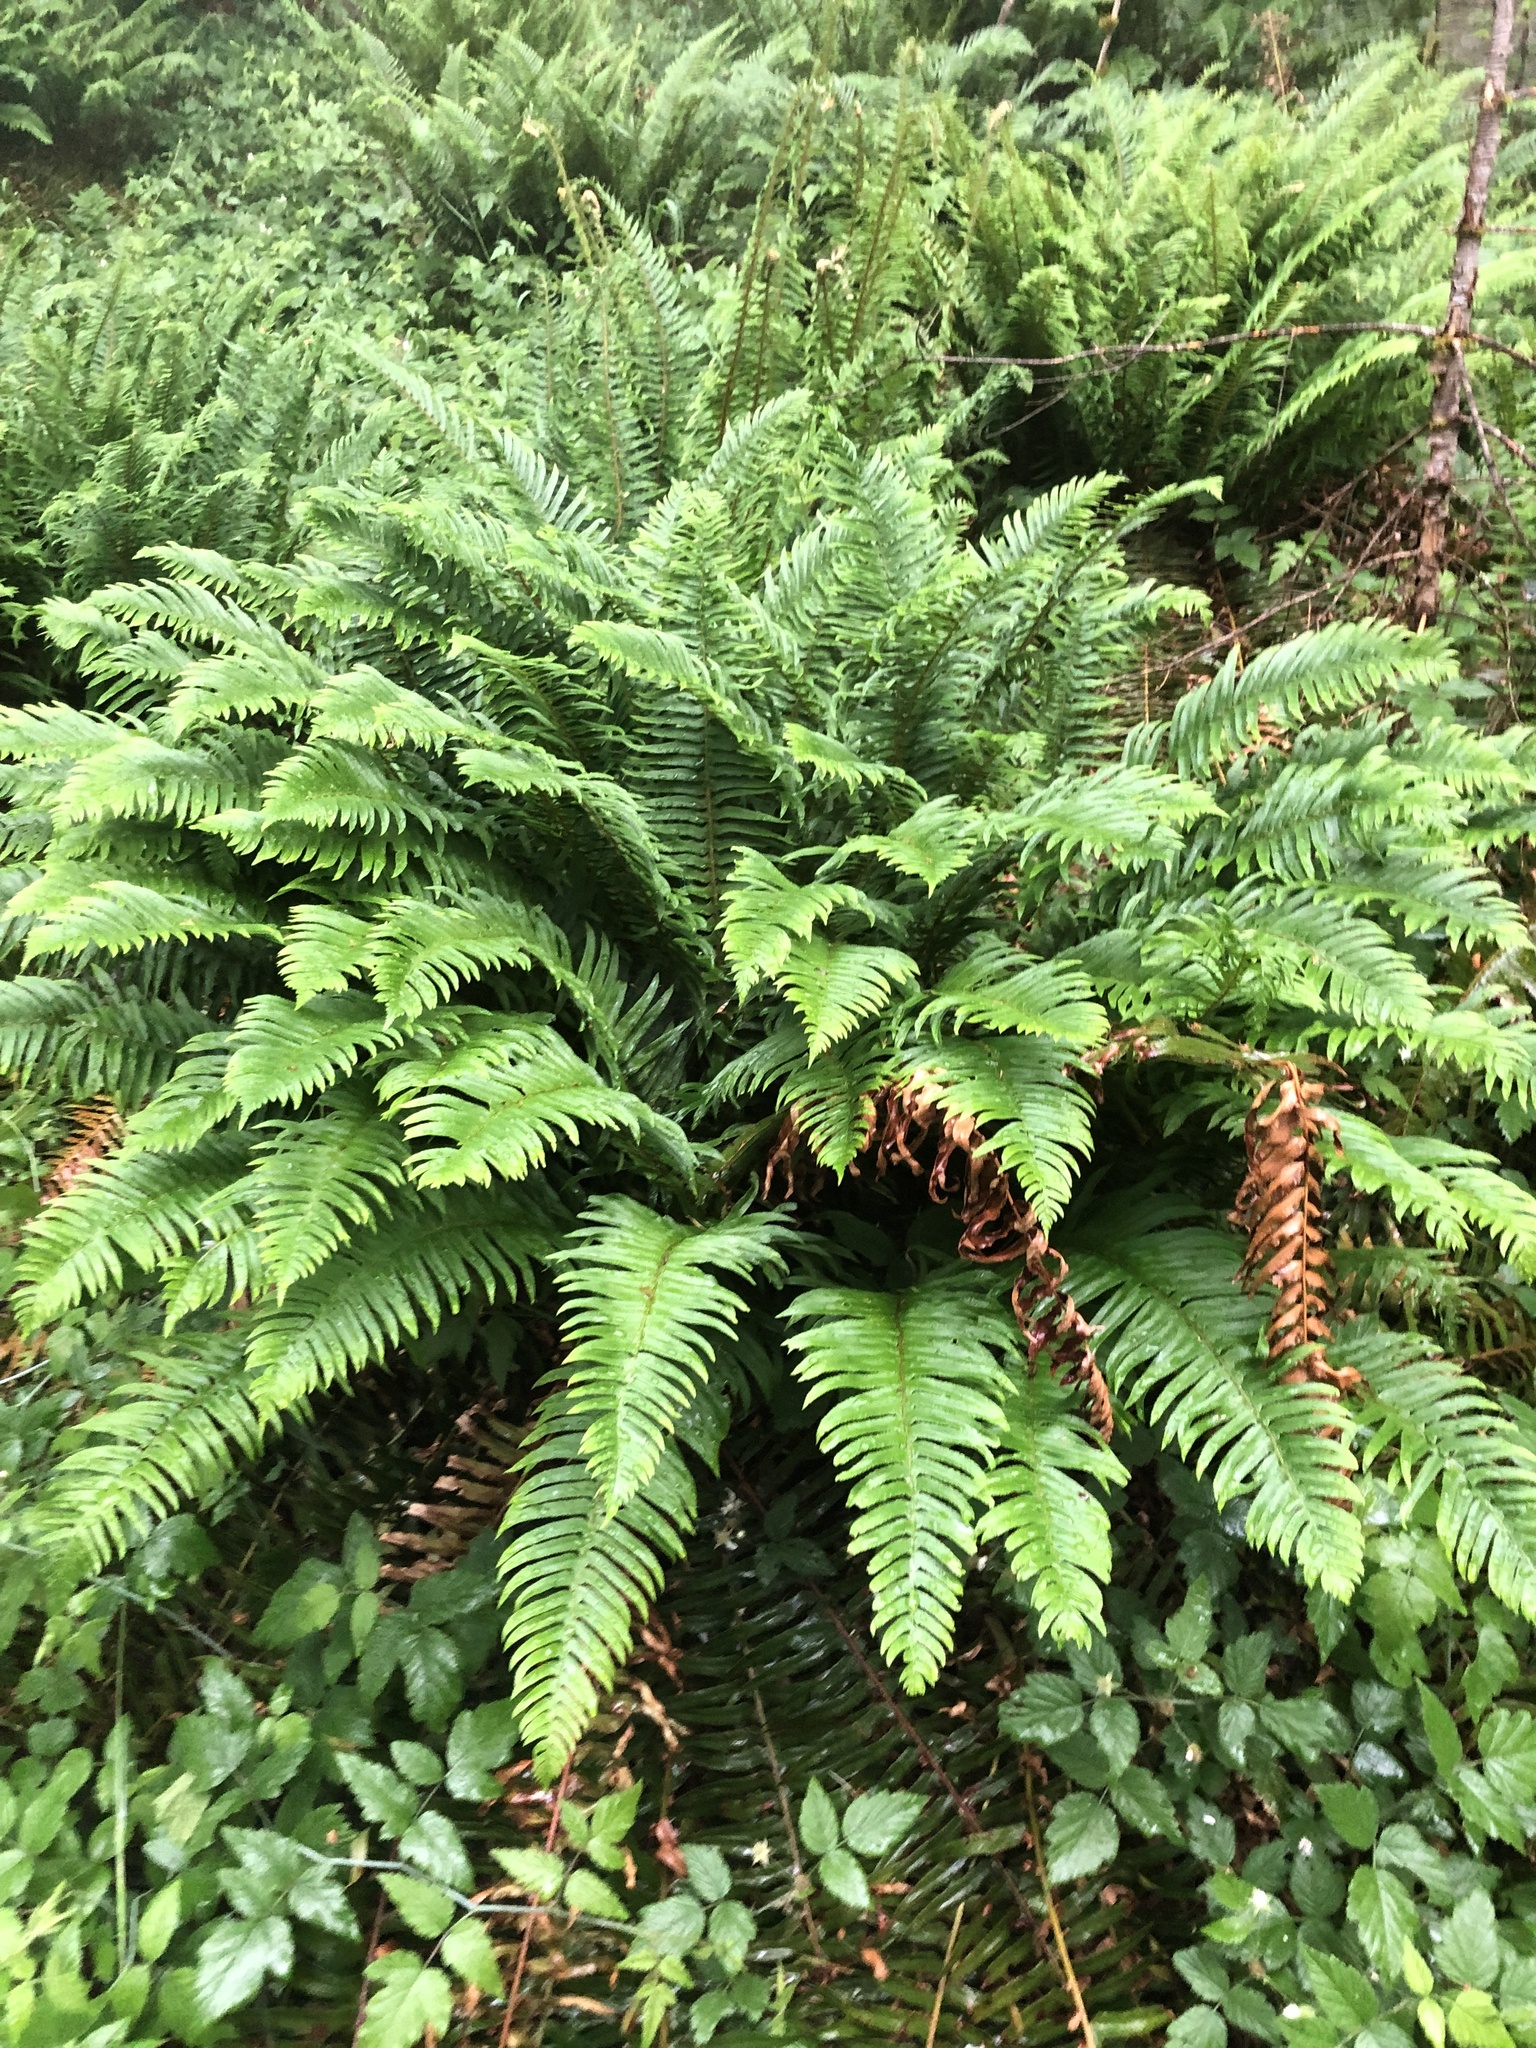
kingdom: Plantae
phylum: Tracheophyta
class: Polypodiopsida
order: Polypodiales
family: Dryopteridaceae
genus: Polystichum
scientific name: Polystichum munitum
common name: Western sword-fern
